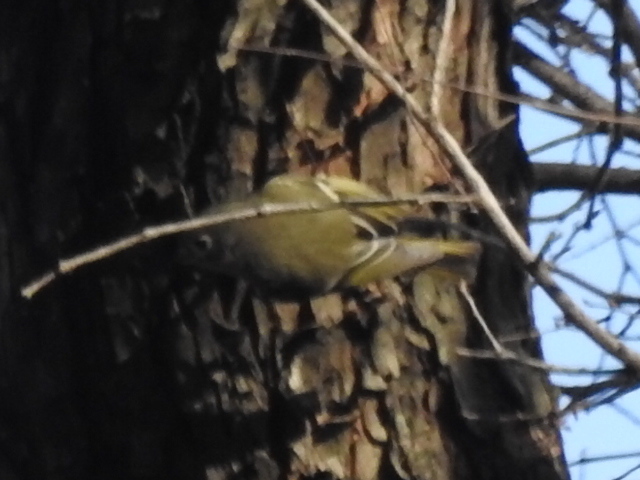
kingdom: Animalia
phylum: Chordata
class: Aves
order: Passeriformes
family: Regulidae
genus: Regulus
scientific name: Regulus calendula
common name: Ruby-crowned kinglet
